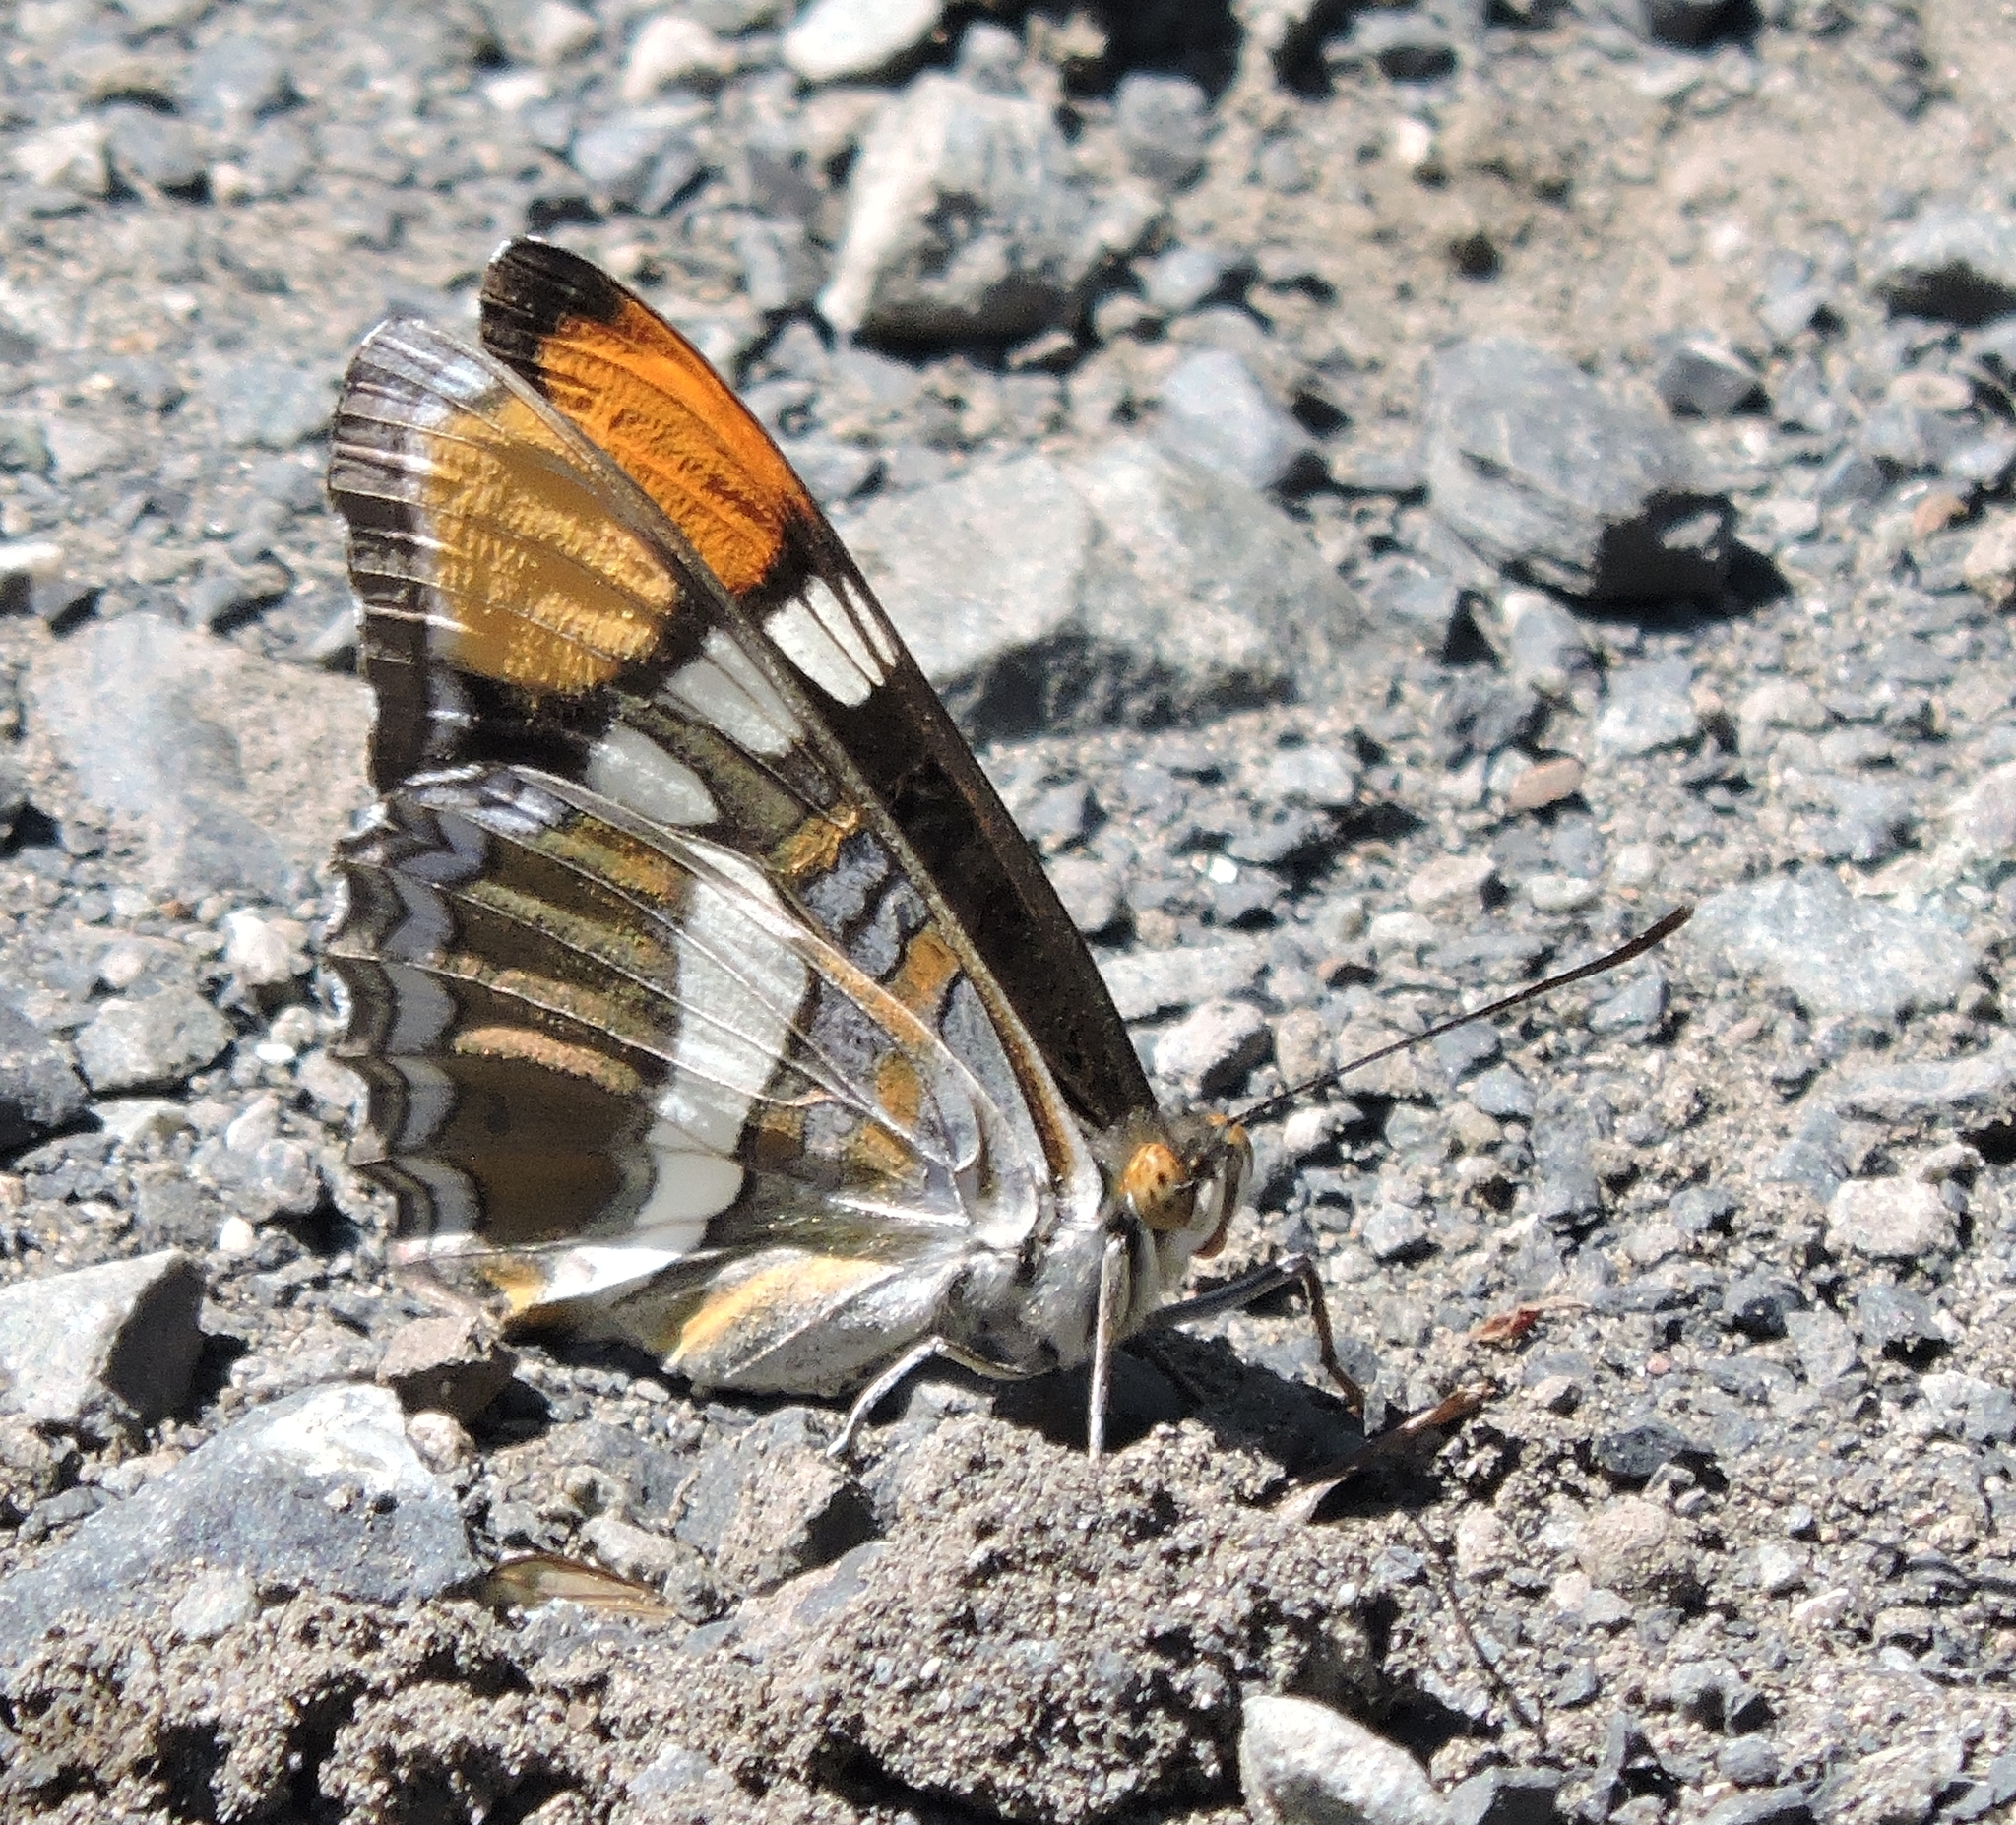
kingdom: Animalia
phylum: Arthropoda
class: Insecta
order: Lepidoptera
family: Nymphalidae
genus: Limenitis
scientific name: Limenitis bredowii
